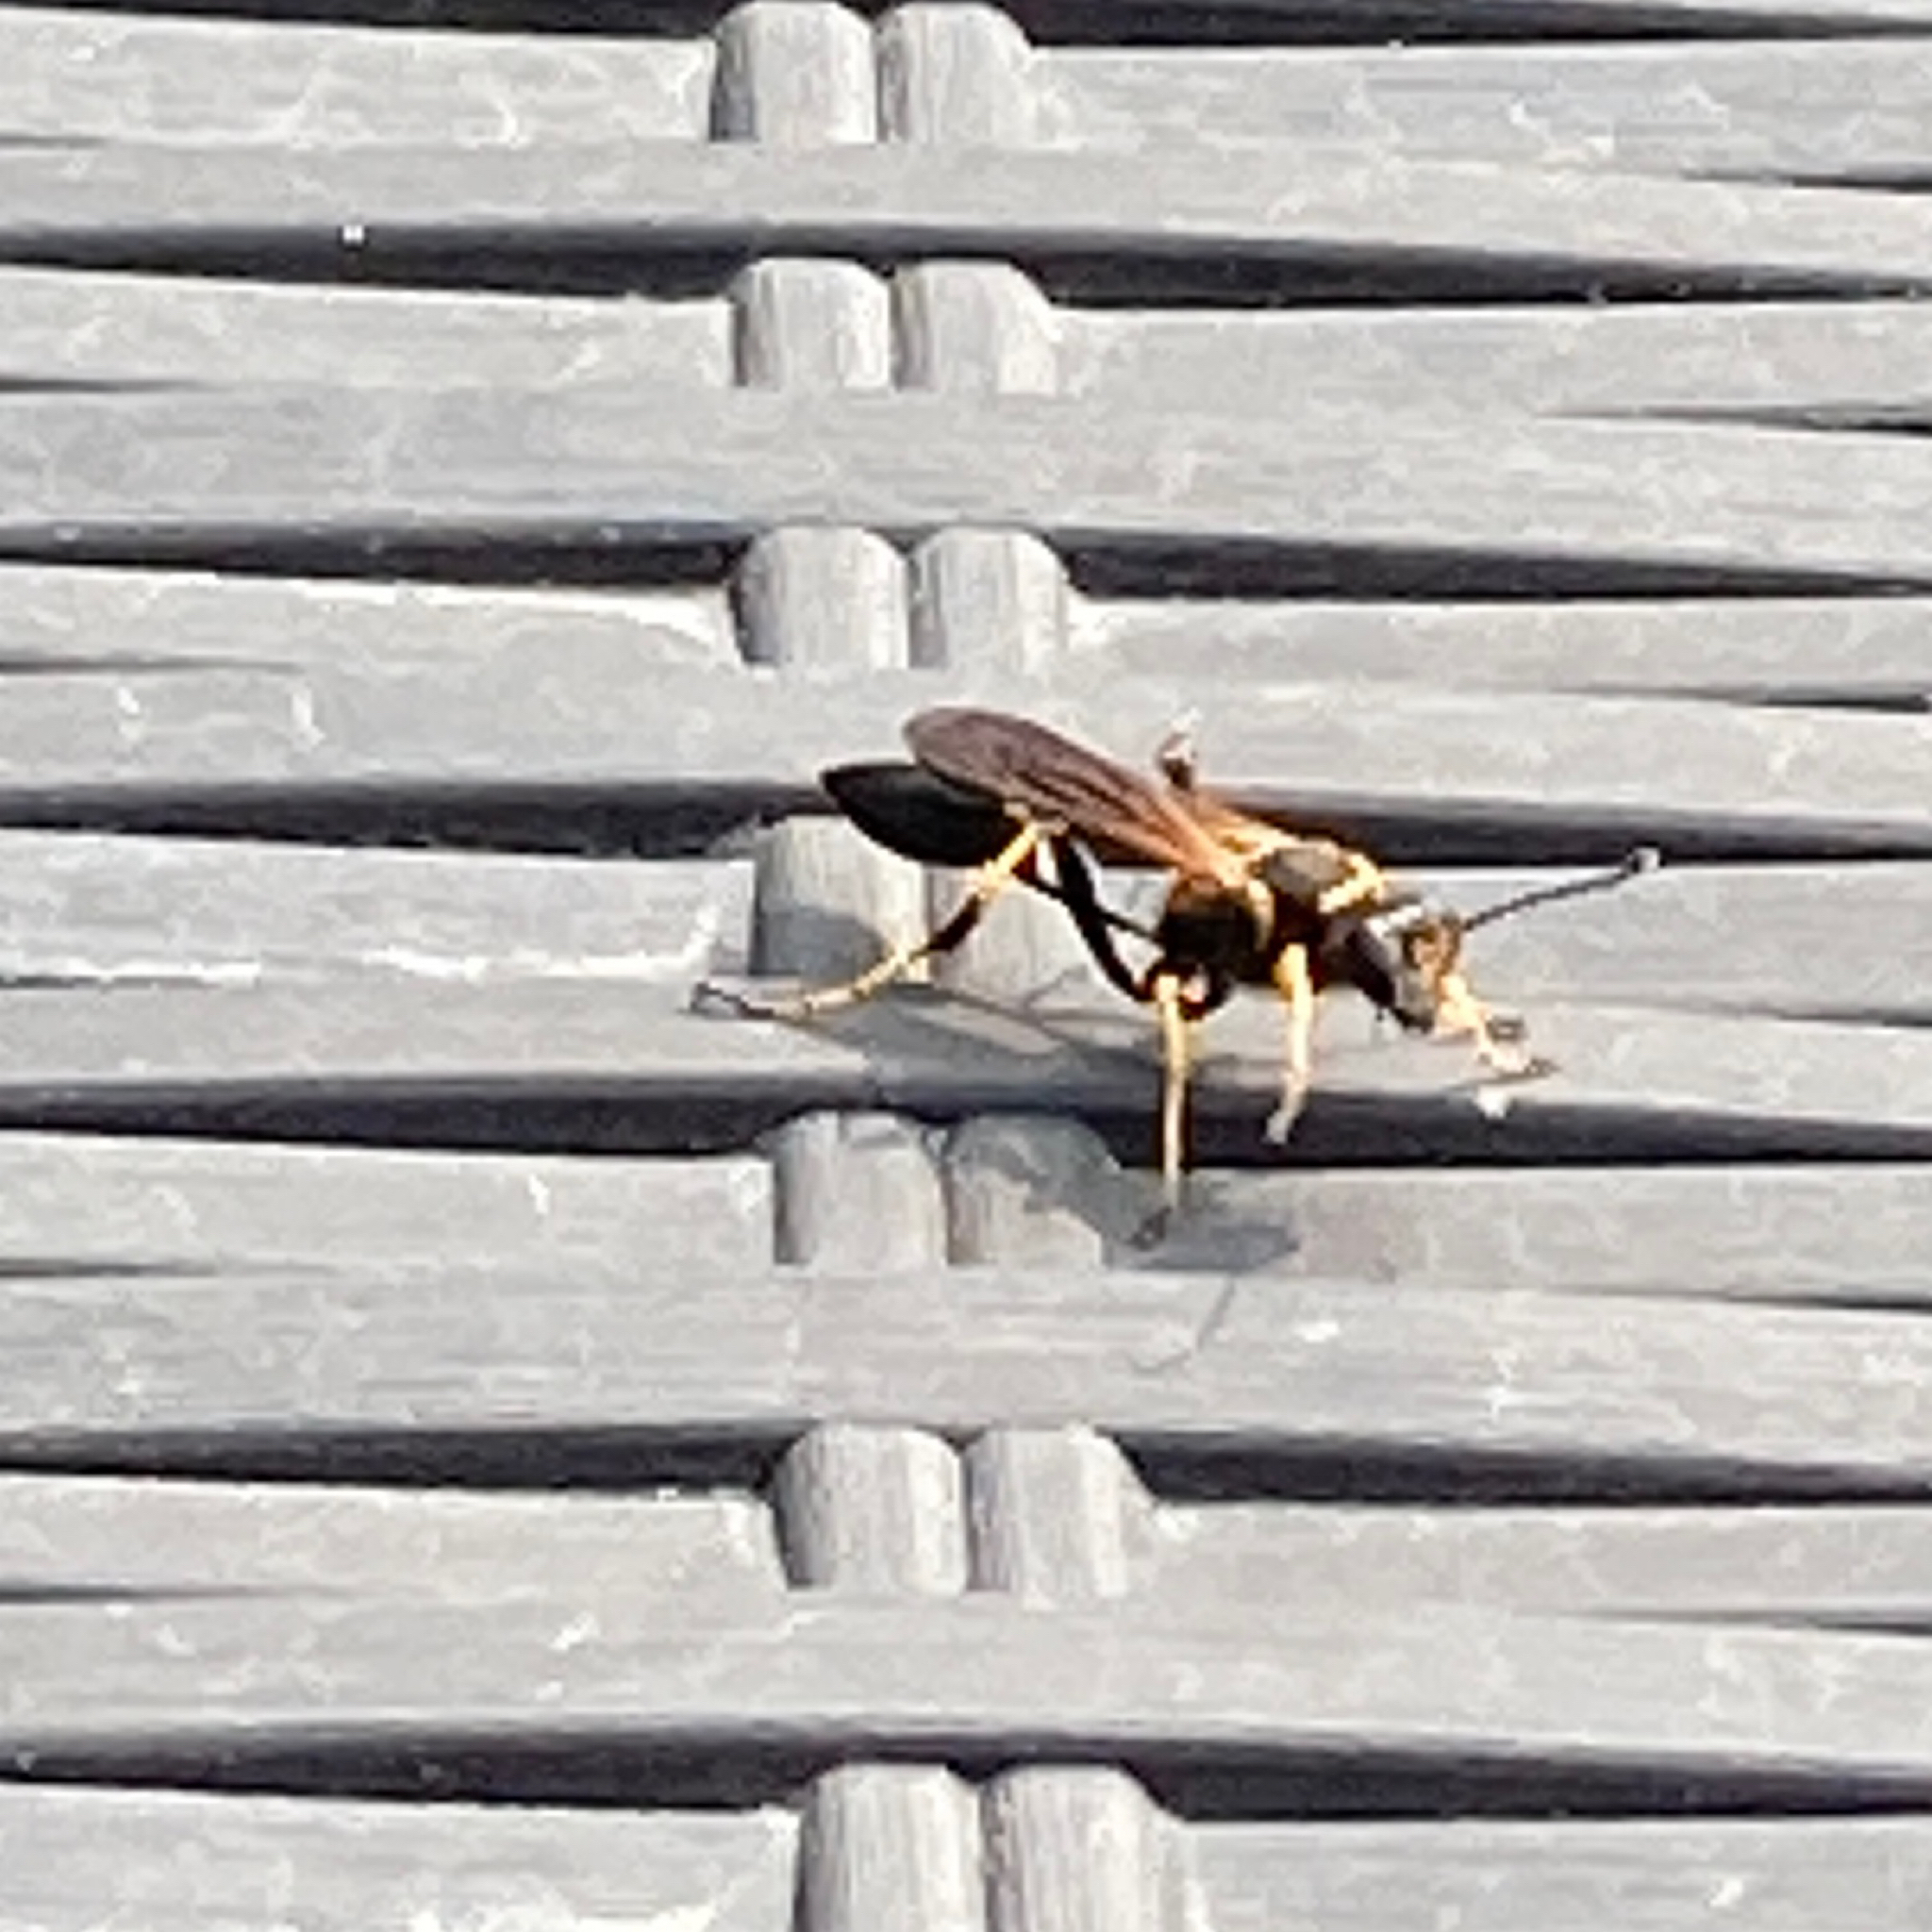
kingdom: Animalia
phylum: Arthropoda
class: Insecta
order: Hymenoptera
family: Sphecidae
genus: Sceliphron
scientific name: Sceliphron caementarium
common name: Mud dauber
